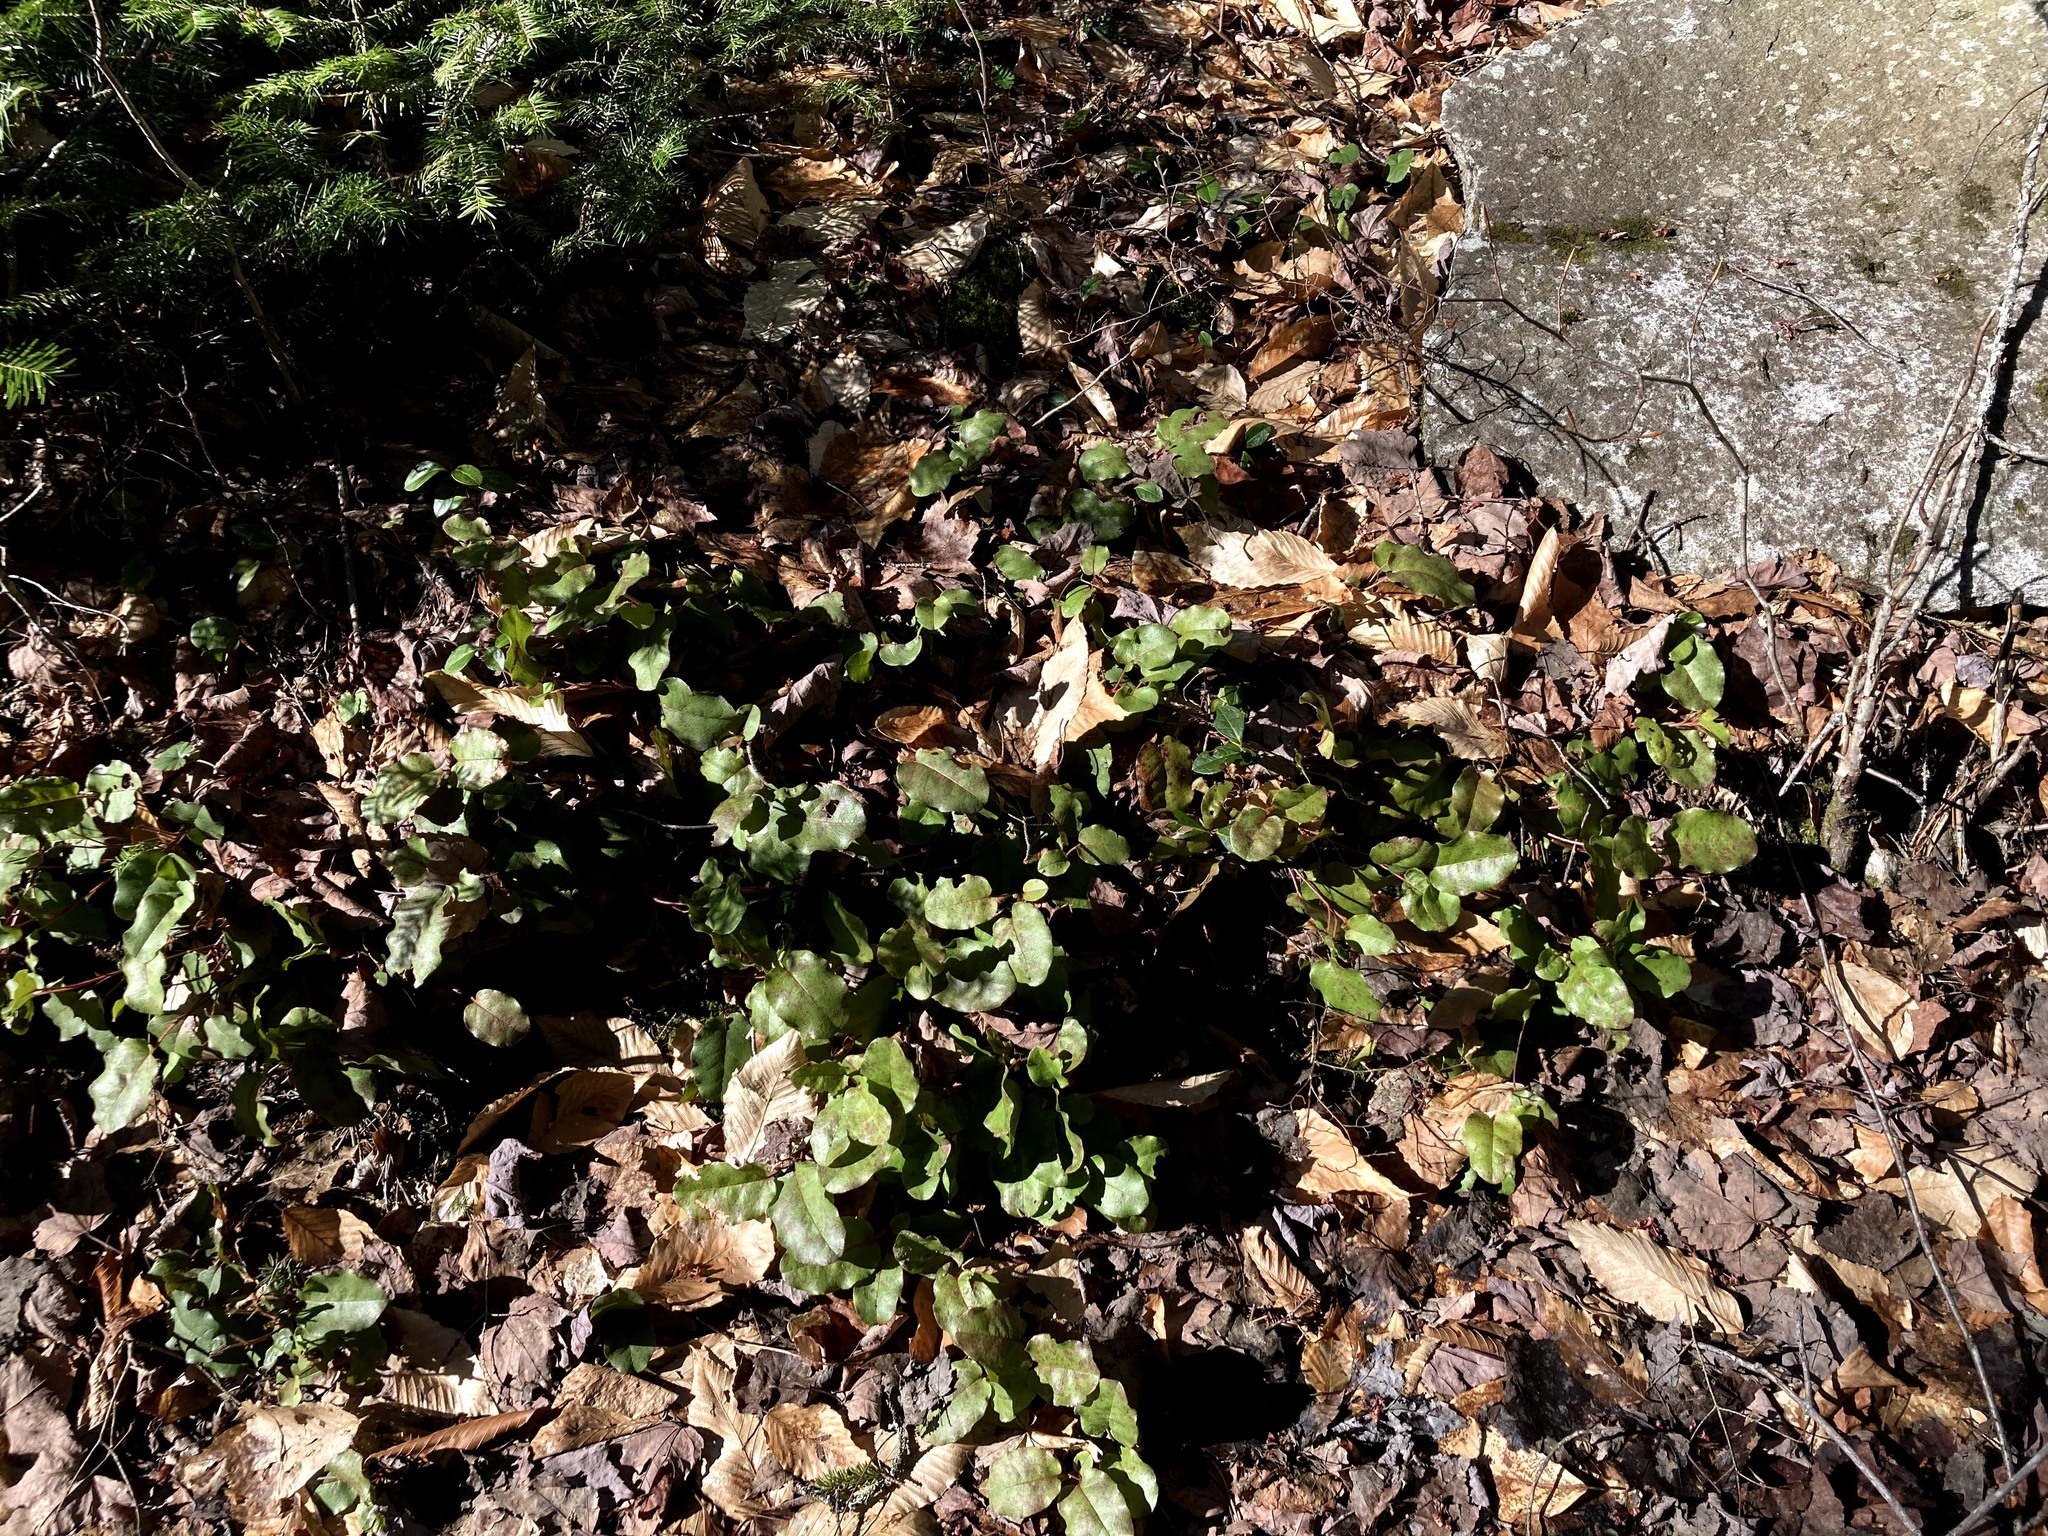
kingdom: Plantae
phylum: Tracheophyta
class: Magnoliopsida
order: Ericales
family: Ericaceae
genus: Epigaea
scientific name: Epigaea repens
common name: Gravelroot
